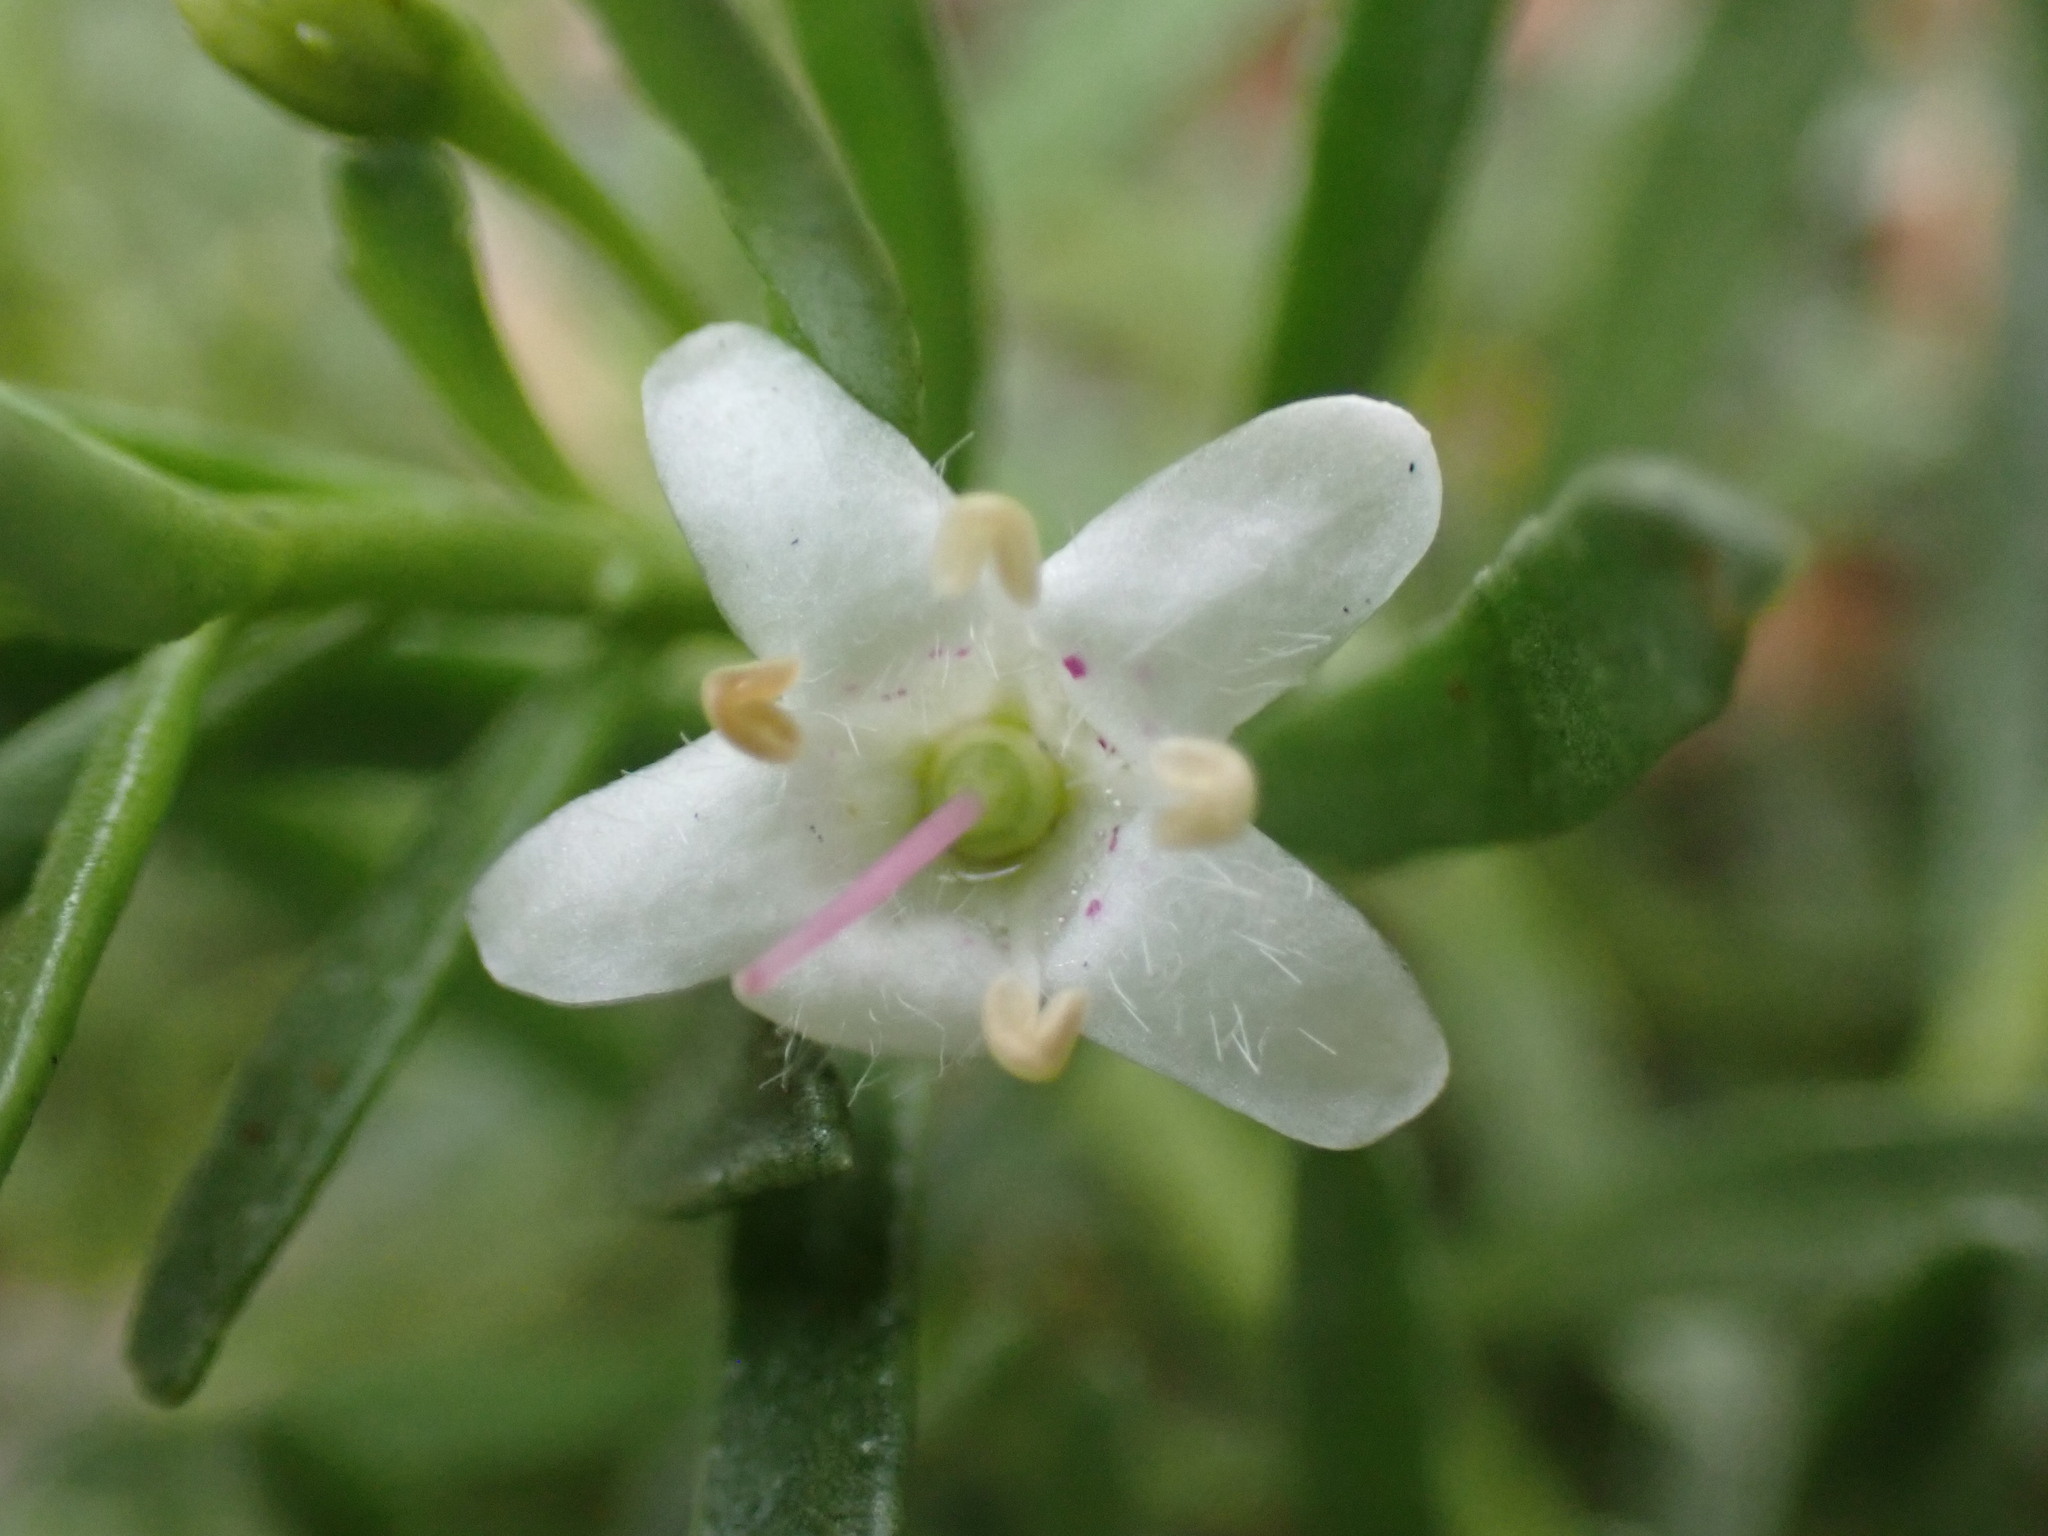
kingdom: Plantae
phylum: Tracheophyta
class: Magnoliopsida
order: Lamiales
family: Scrophulariaceae
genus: Myoporum
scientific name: Myoporum parvifolium
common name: Dwarf native-myrtle
